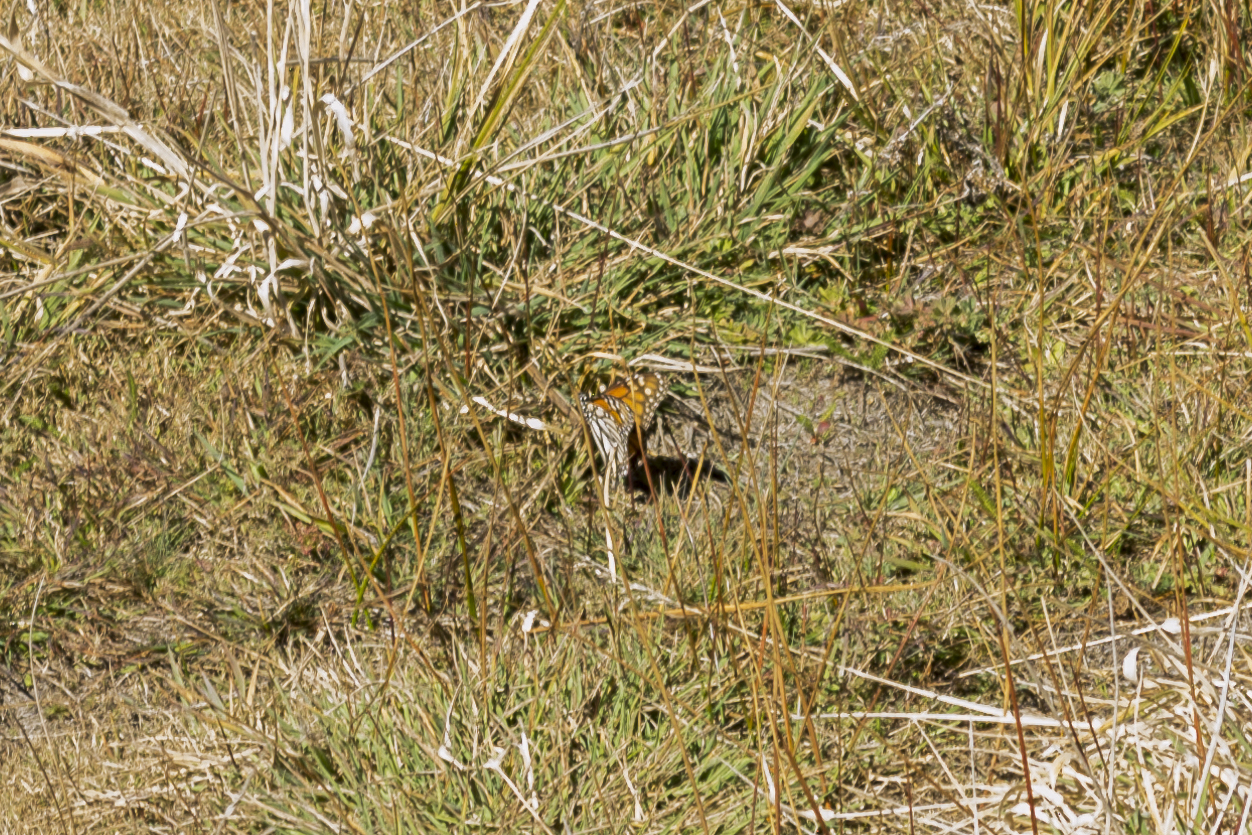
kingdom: Animalia
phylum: Arthropoda
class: Insecta
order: Lepidoptera
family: Nymphalidae
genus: Danaus
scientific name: Danaus plexippus
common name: Monarch
